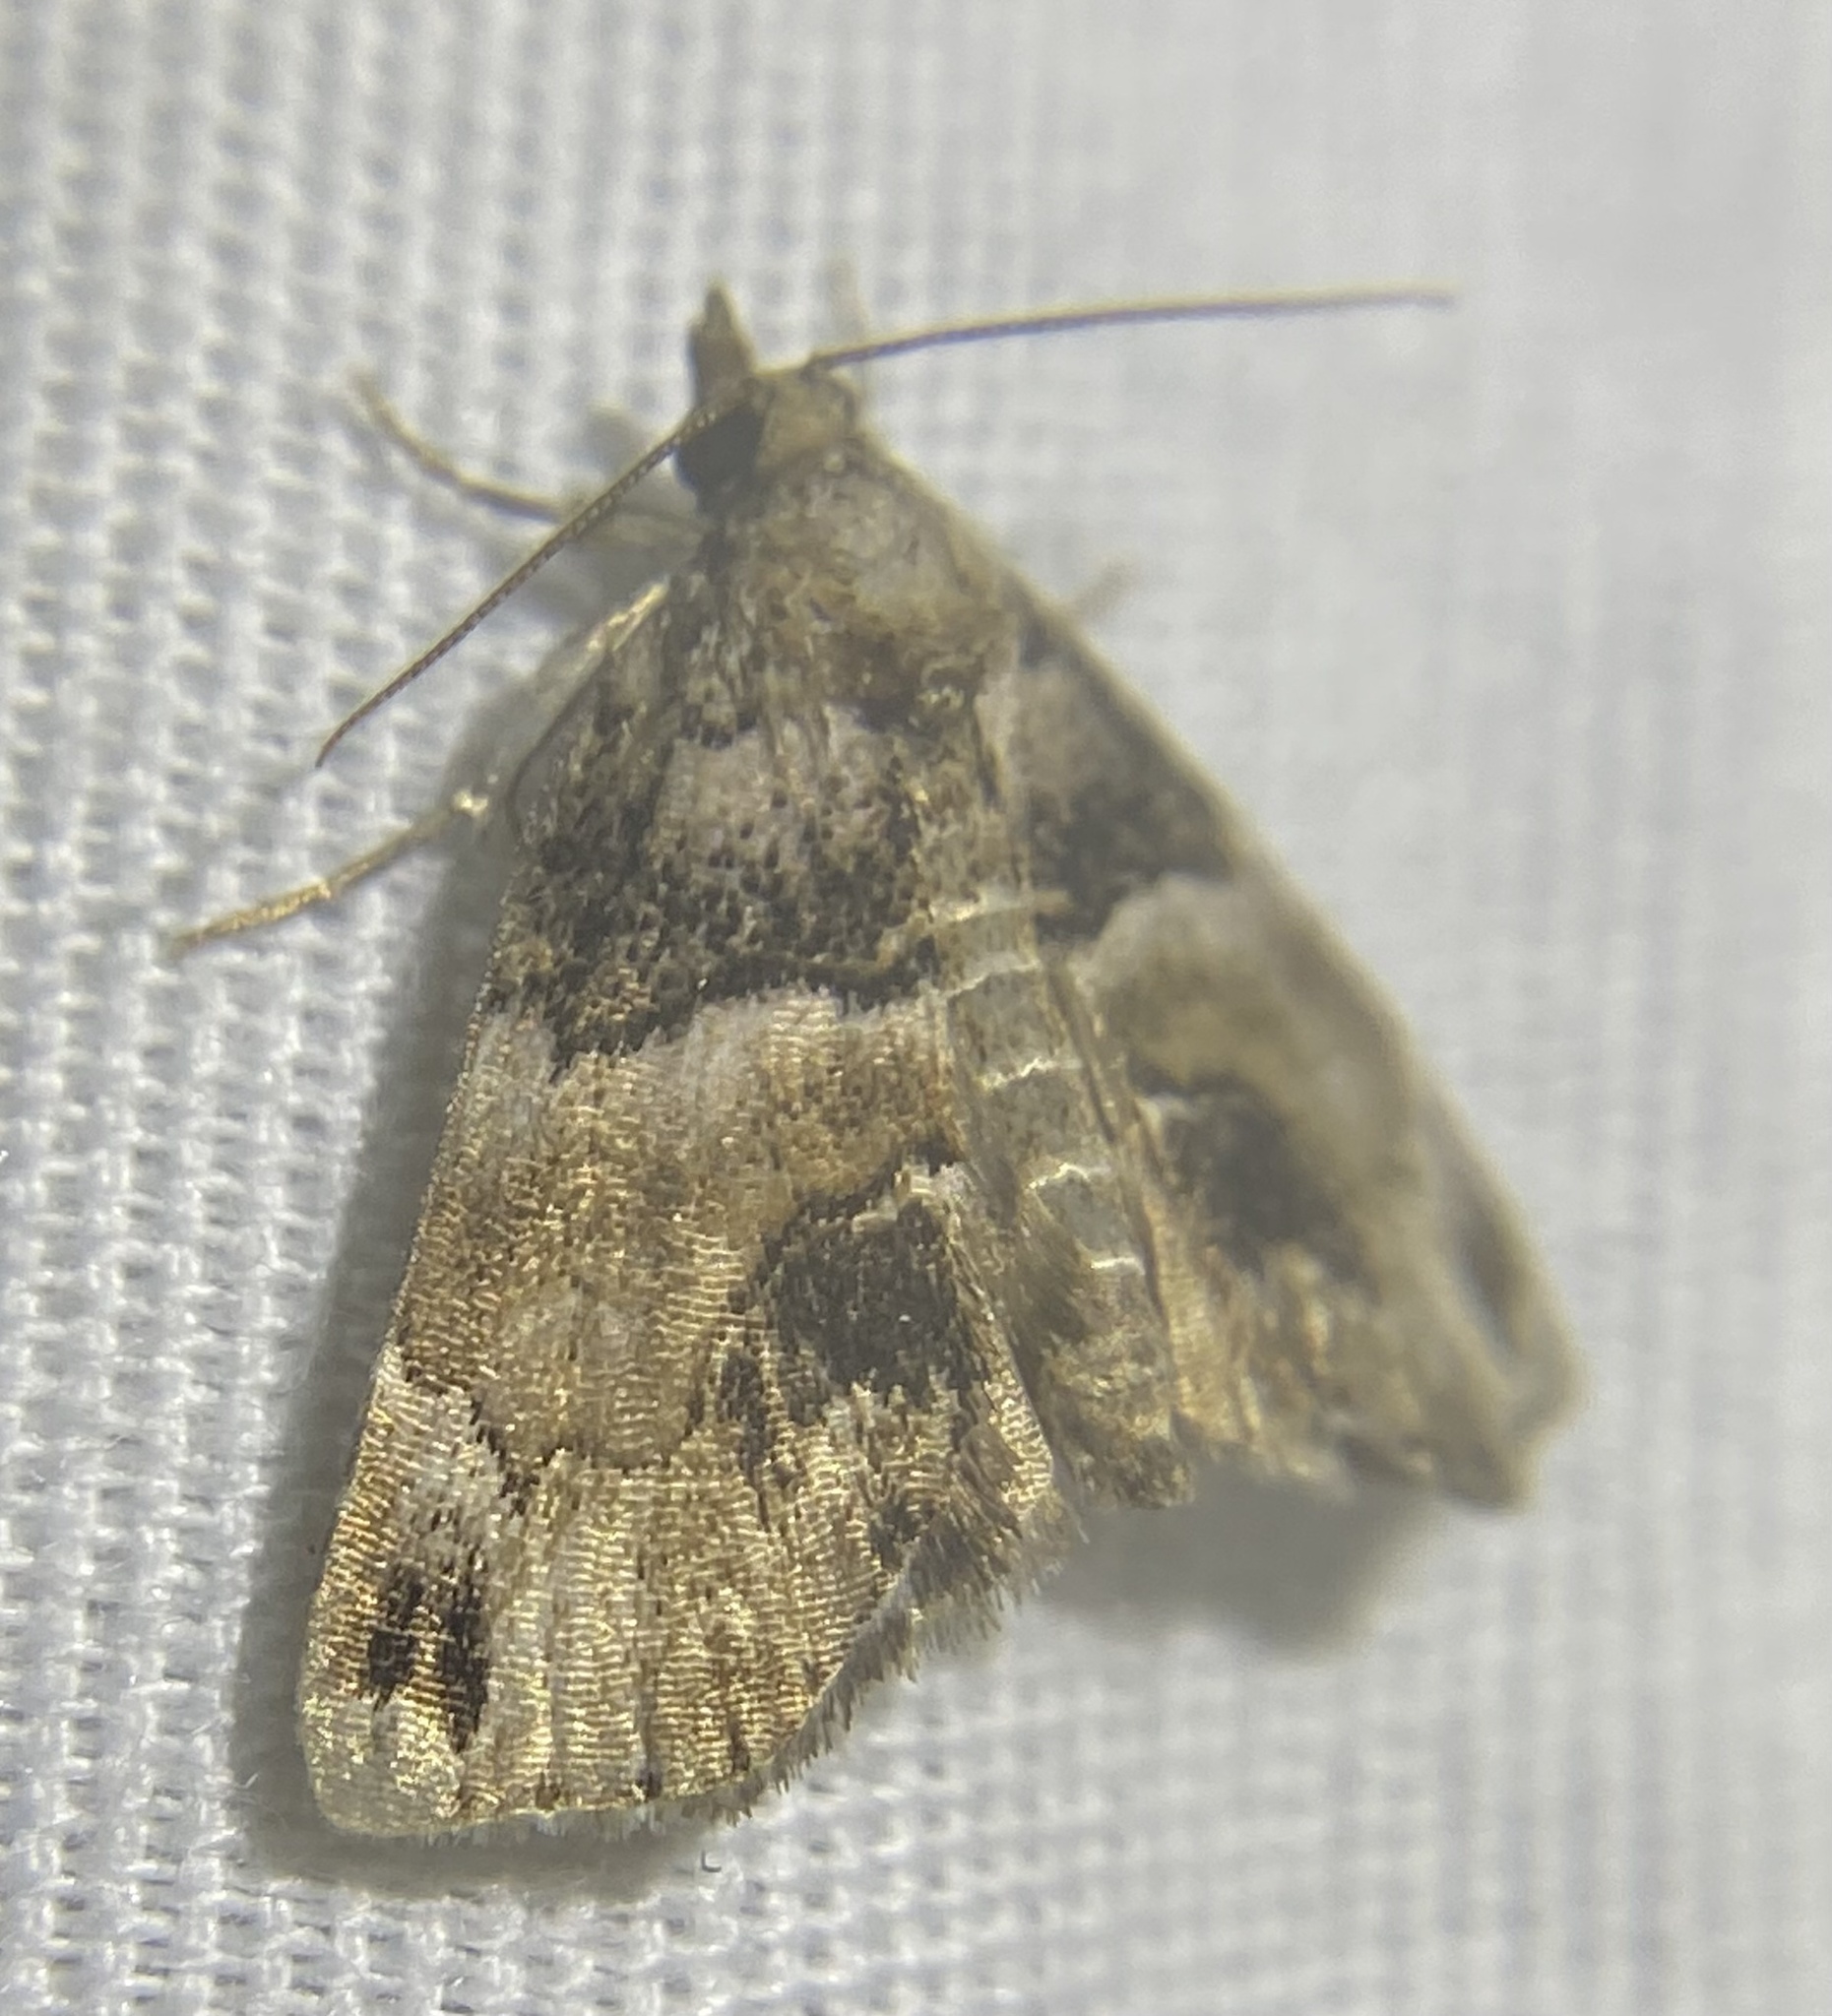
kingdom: Animalia
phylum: Arthropoda
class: Insecta
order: Lepidoptera
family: Erebidae
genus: Cutina
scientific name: Cutina distincta
